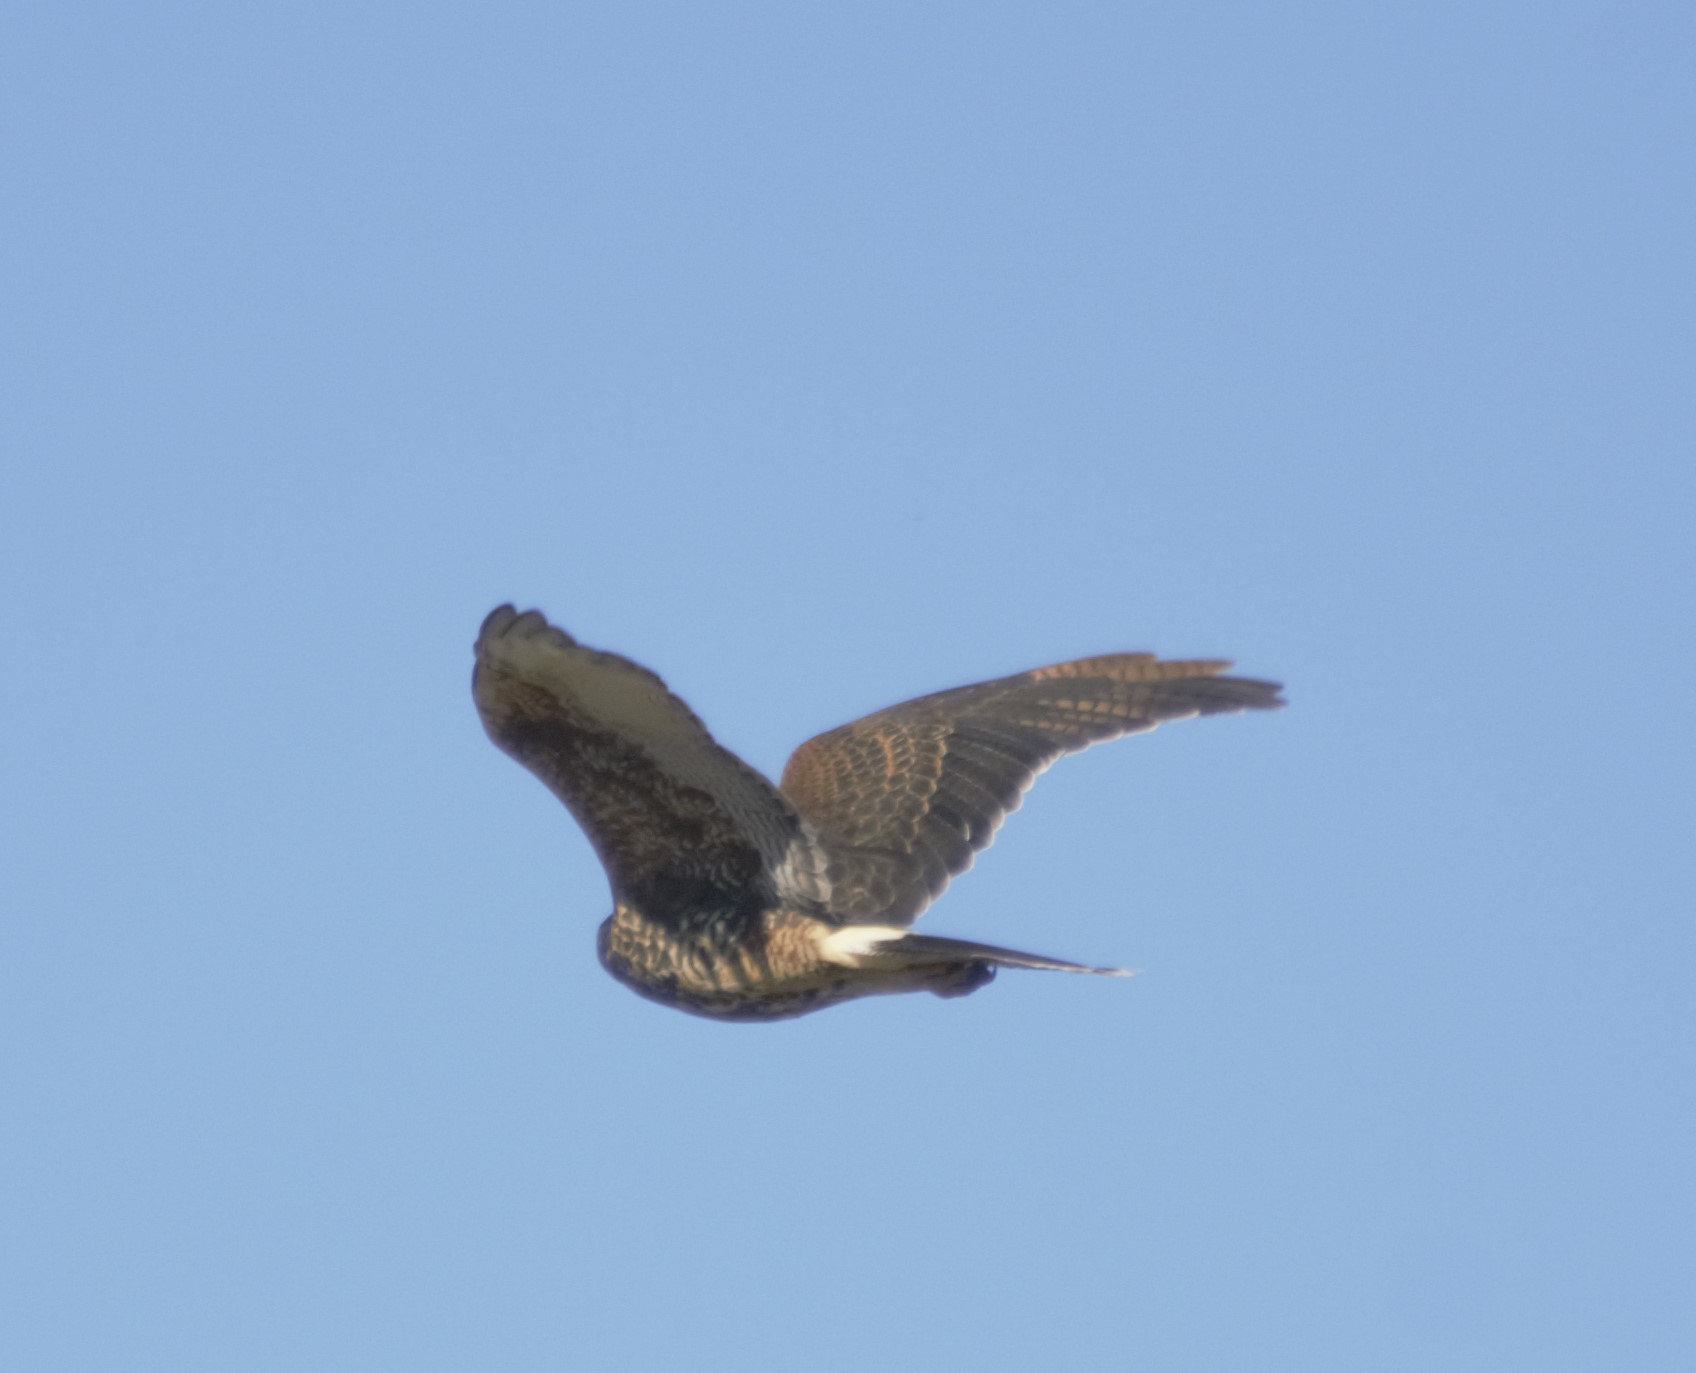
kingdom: Animalia
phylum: Chordata
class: Aves
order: Accipitriformes
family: Accipitridae
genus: Parabuteo
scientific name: Parabuteo unicinctus
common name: Harris's hawk
